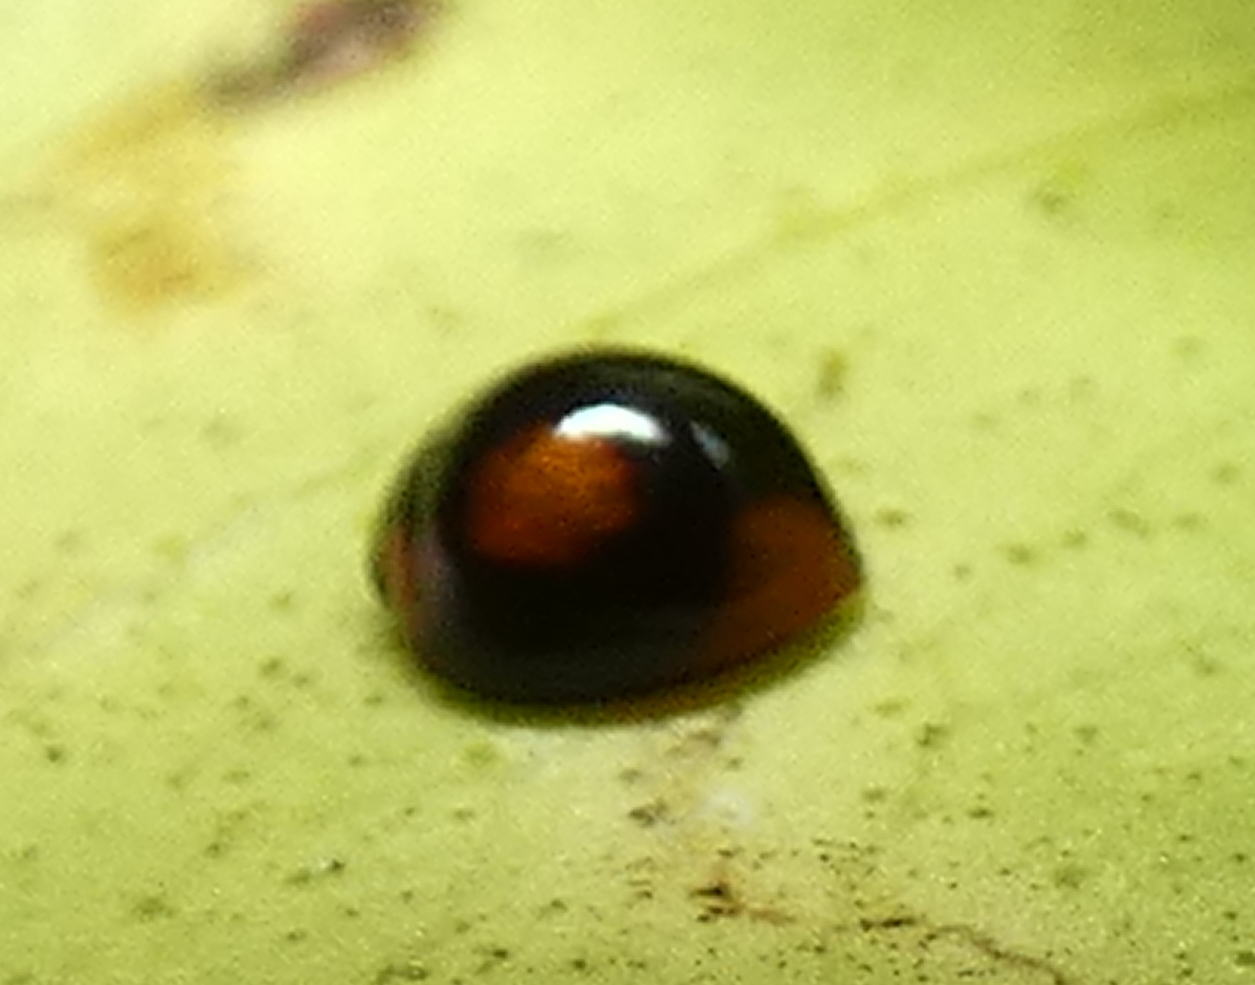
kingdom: Animalia
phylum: Arthropoda
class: Insecta
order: Coleoptera
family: Coccinellidae
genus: Cryptognatha
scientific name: Cryptognatha
